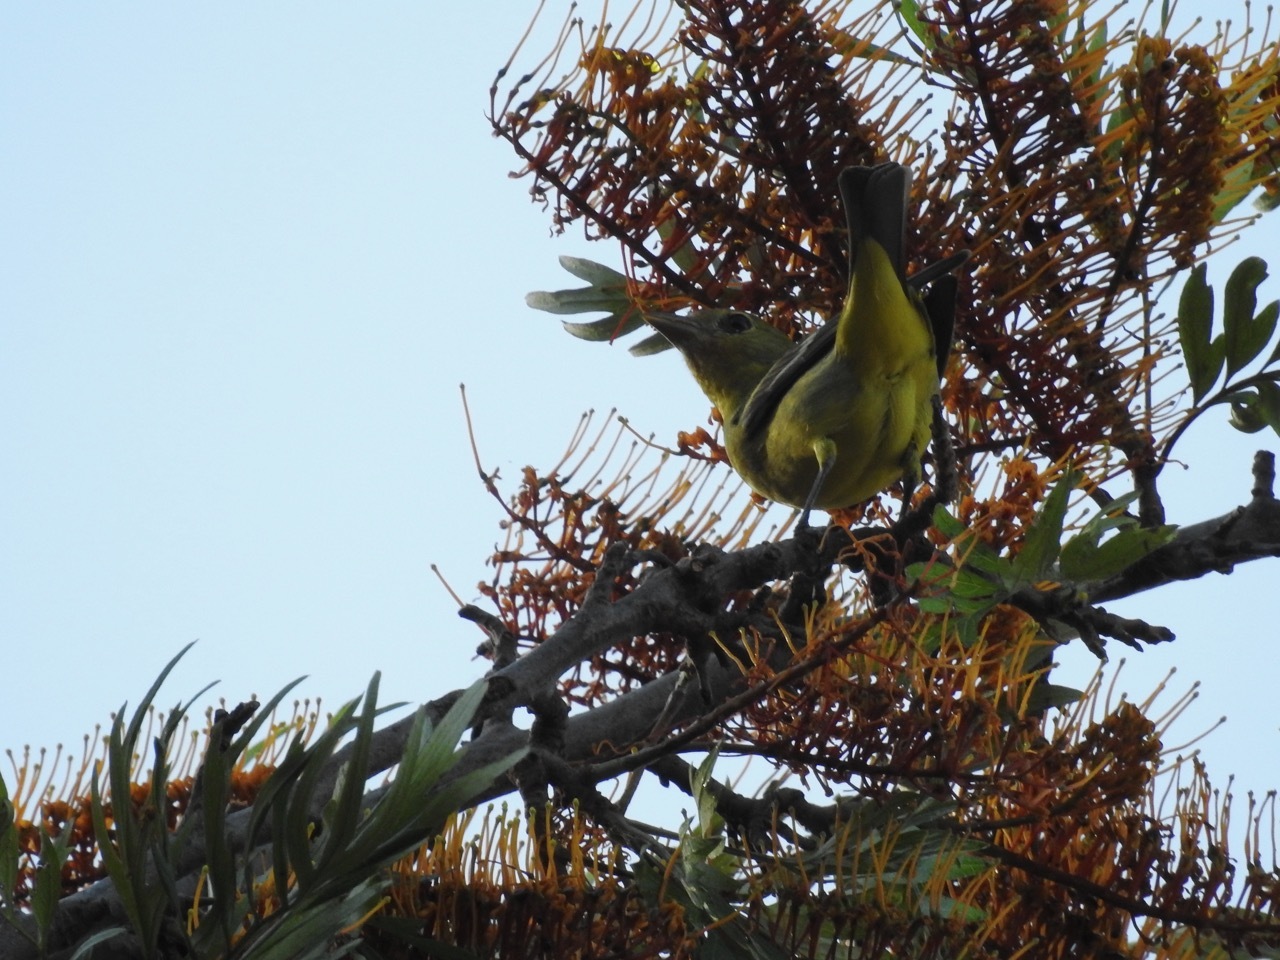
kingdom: Animalia
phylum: Chordata
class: Aves
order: Passeriformes
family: Cardinalidae
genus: Piranga
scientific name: Piranga ludoviciana
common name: Western tanager
